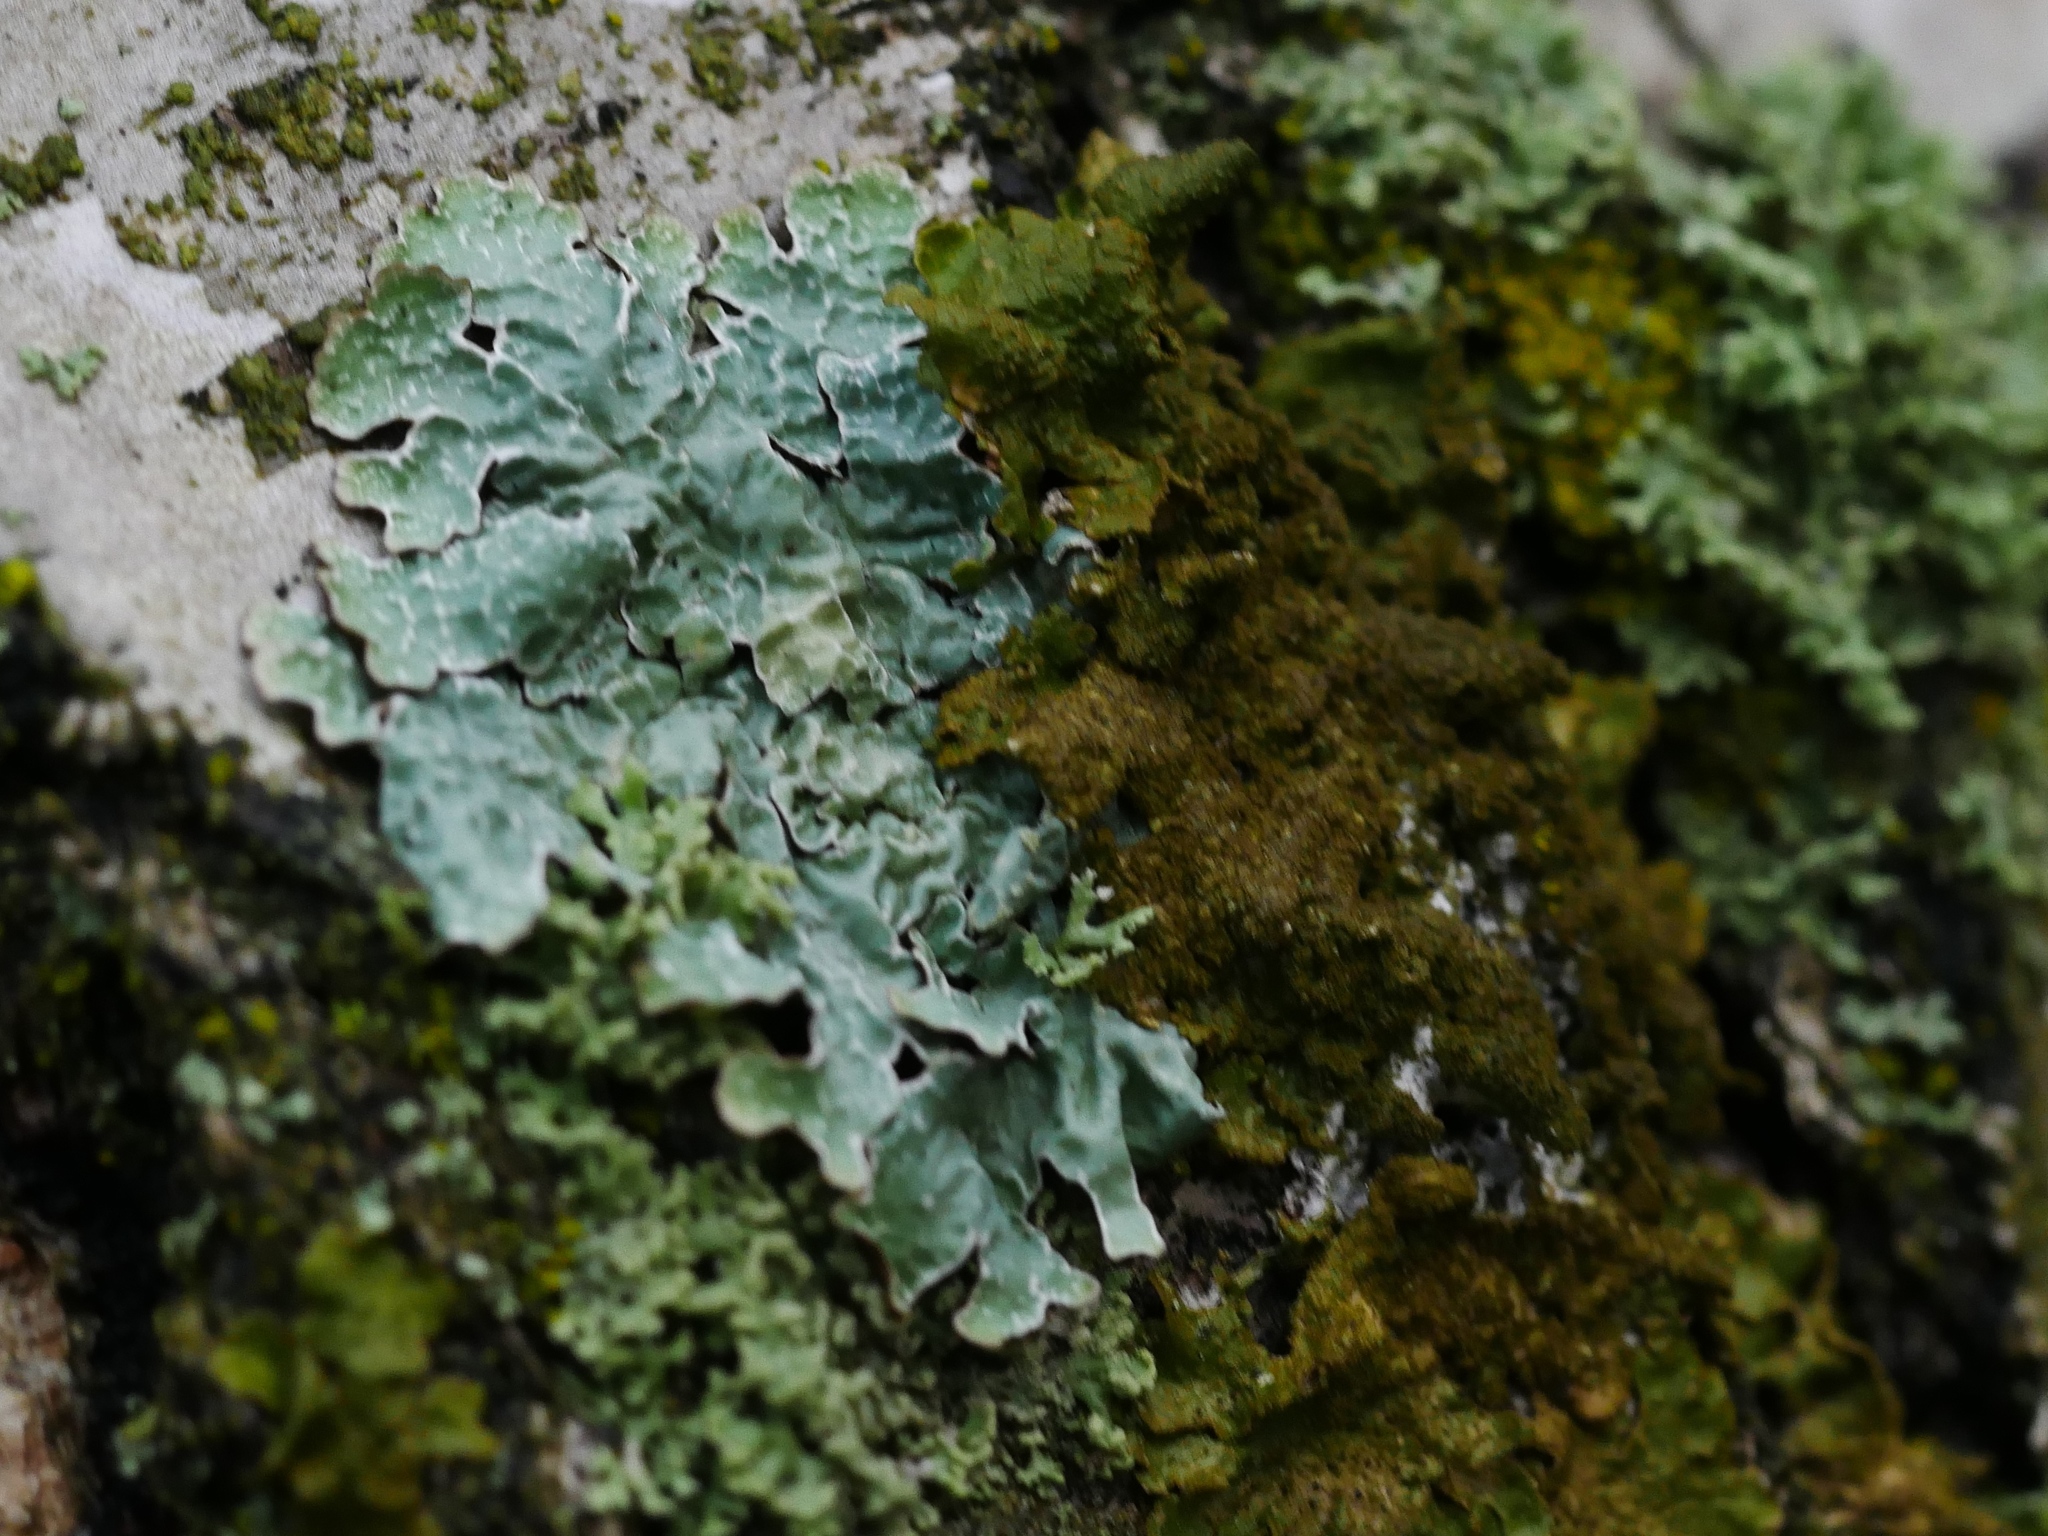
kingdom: Fungi
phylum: Ascomycota
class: Lecanoromycetes
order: Lecanorales
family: Parmeliaceae
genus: Parmelia
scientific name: Parmelia sulcata
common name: Netted shield lichen
